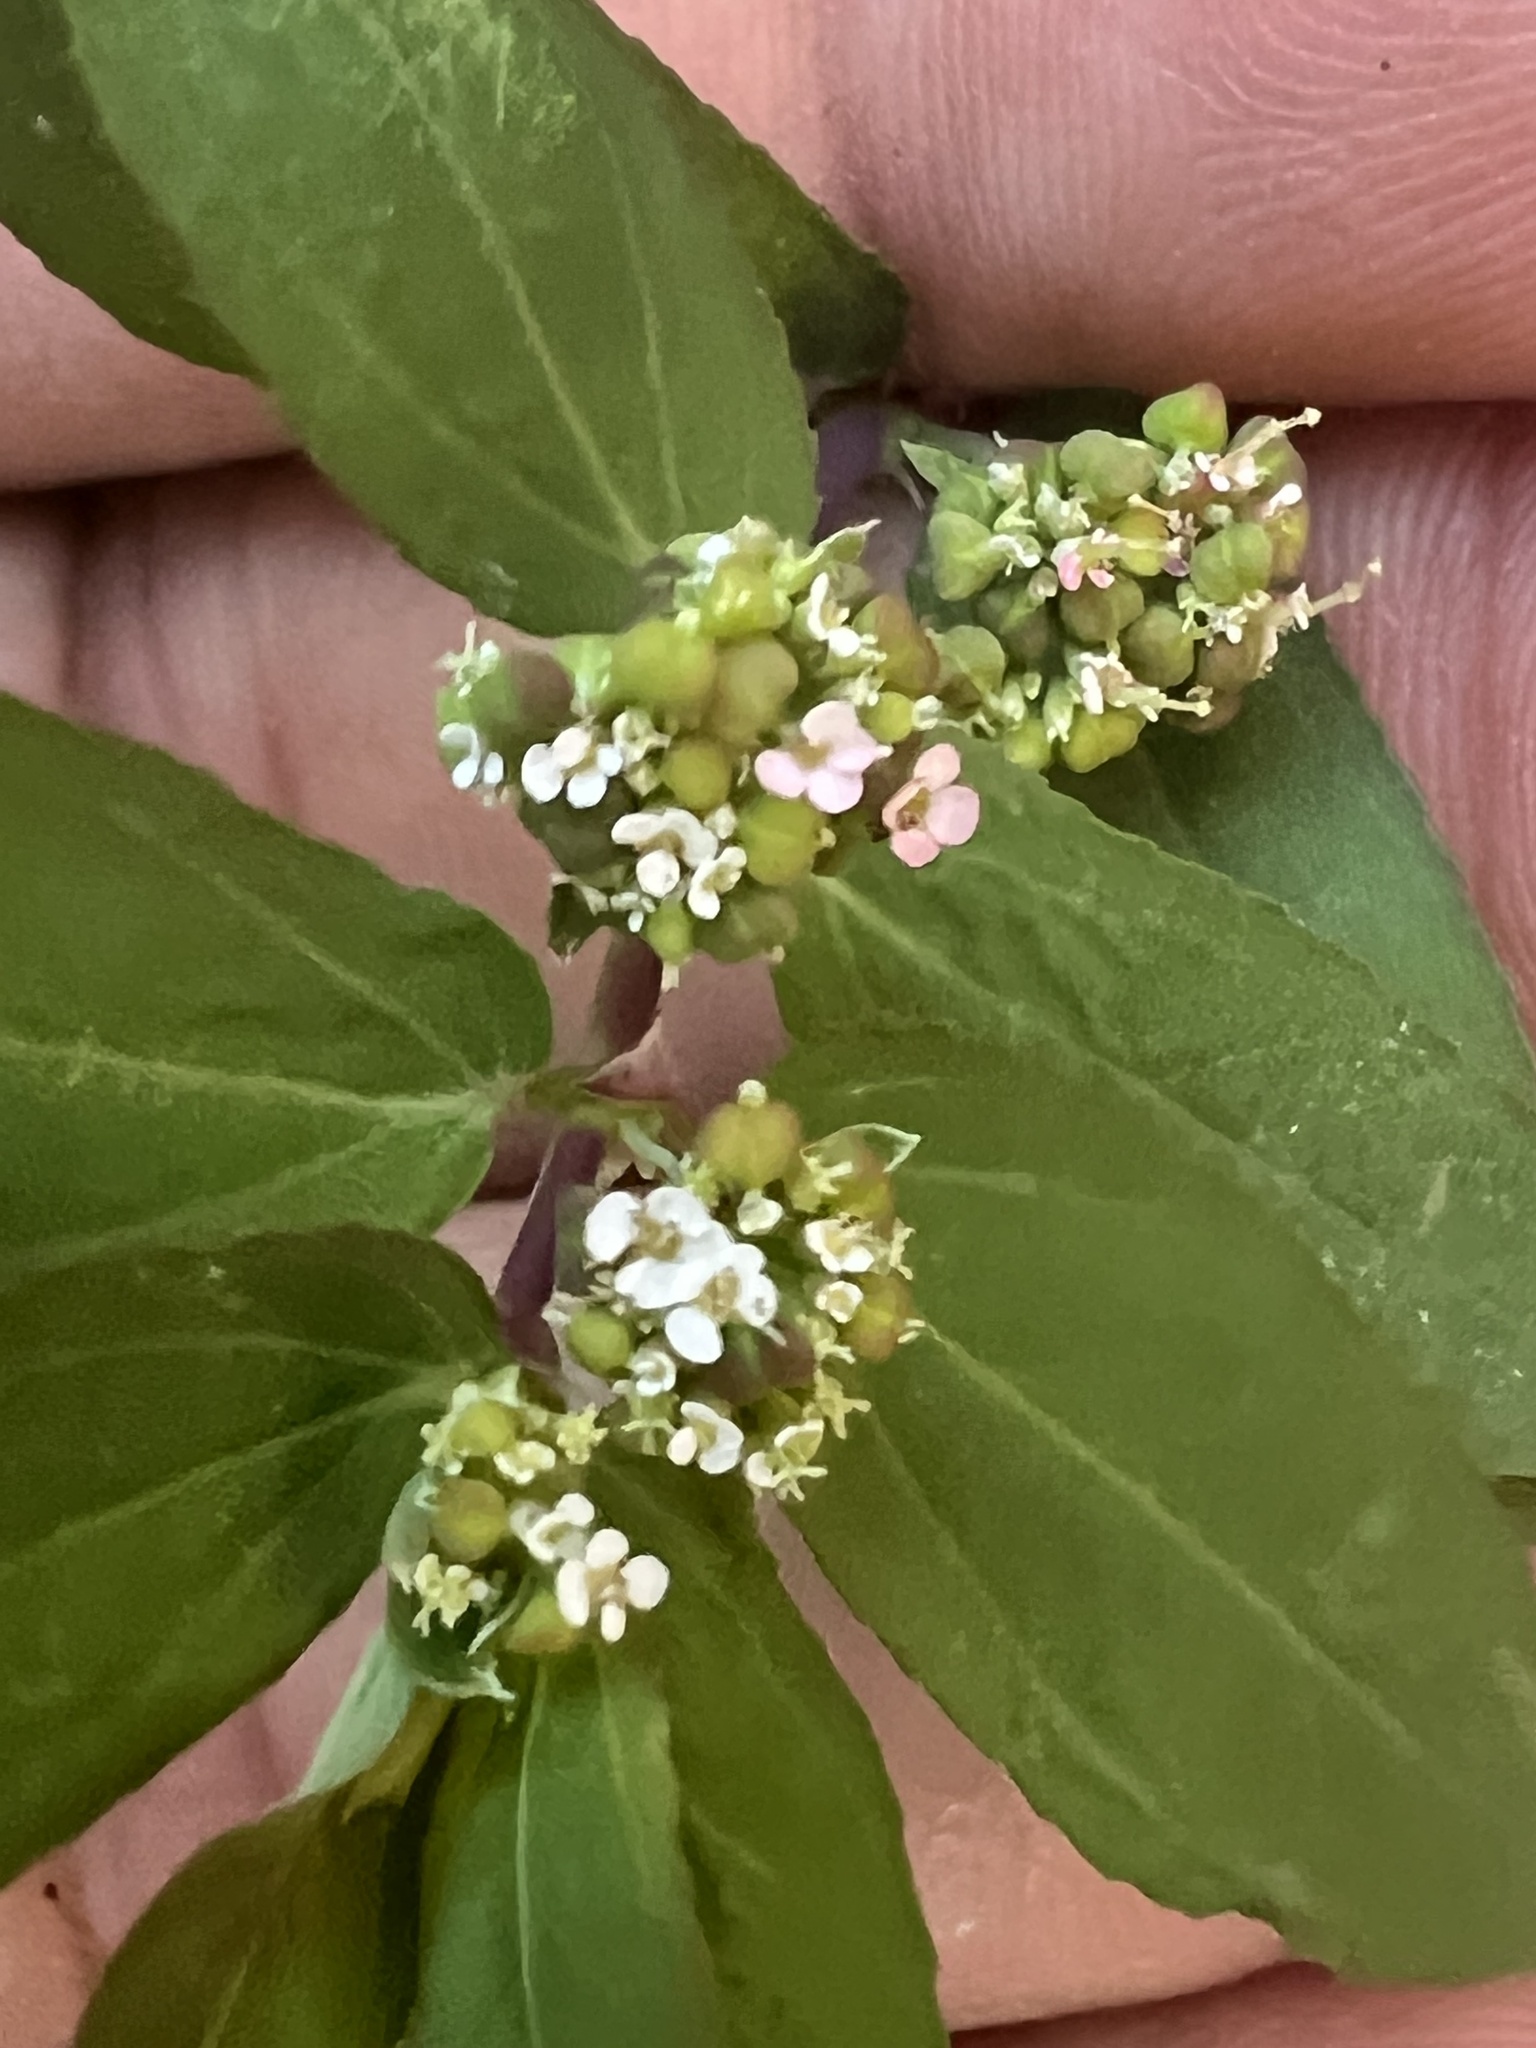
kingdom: Plantae
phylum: Tracheophyta
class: Magnoliopsida
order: Malpighiales
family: Euphorbiaceae
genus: Euphorbia
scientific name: Euphorbia hypericifolia
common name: Graceful sandmat
